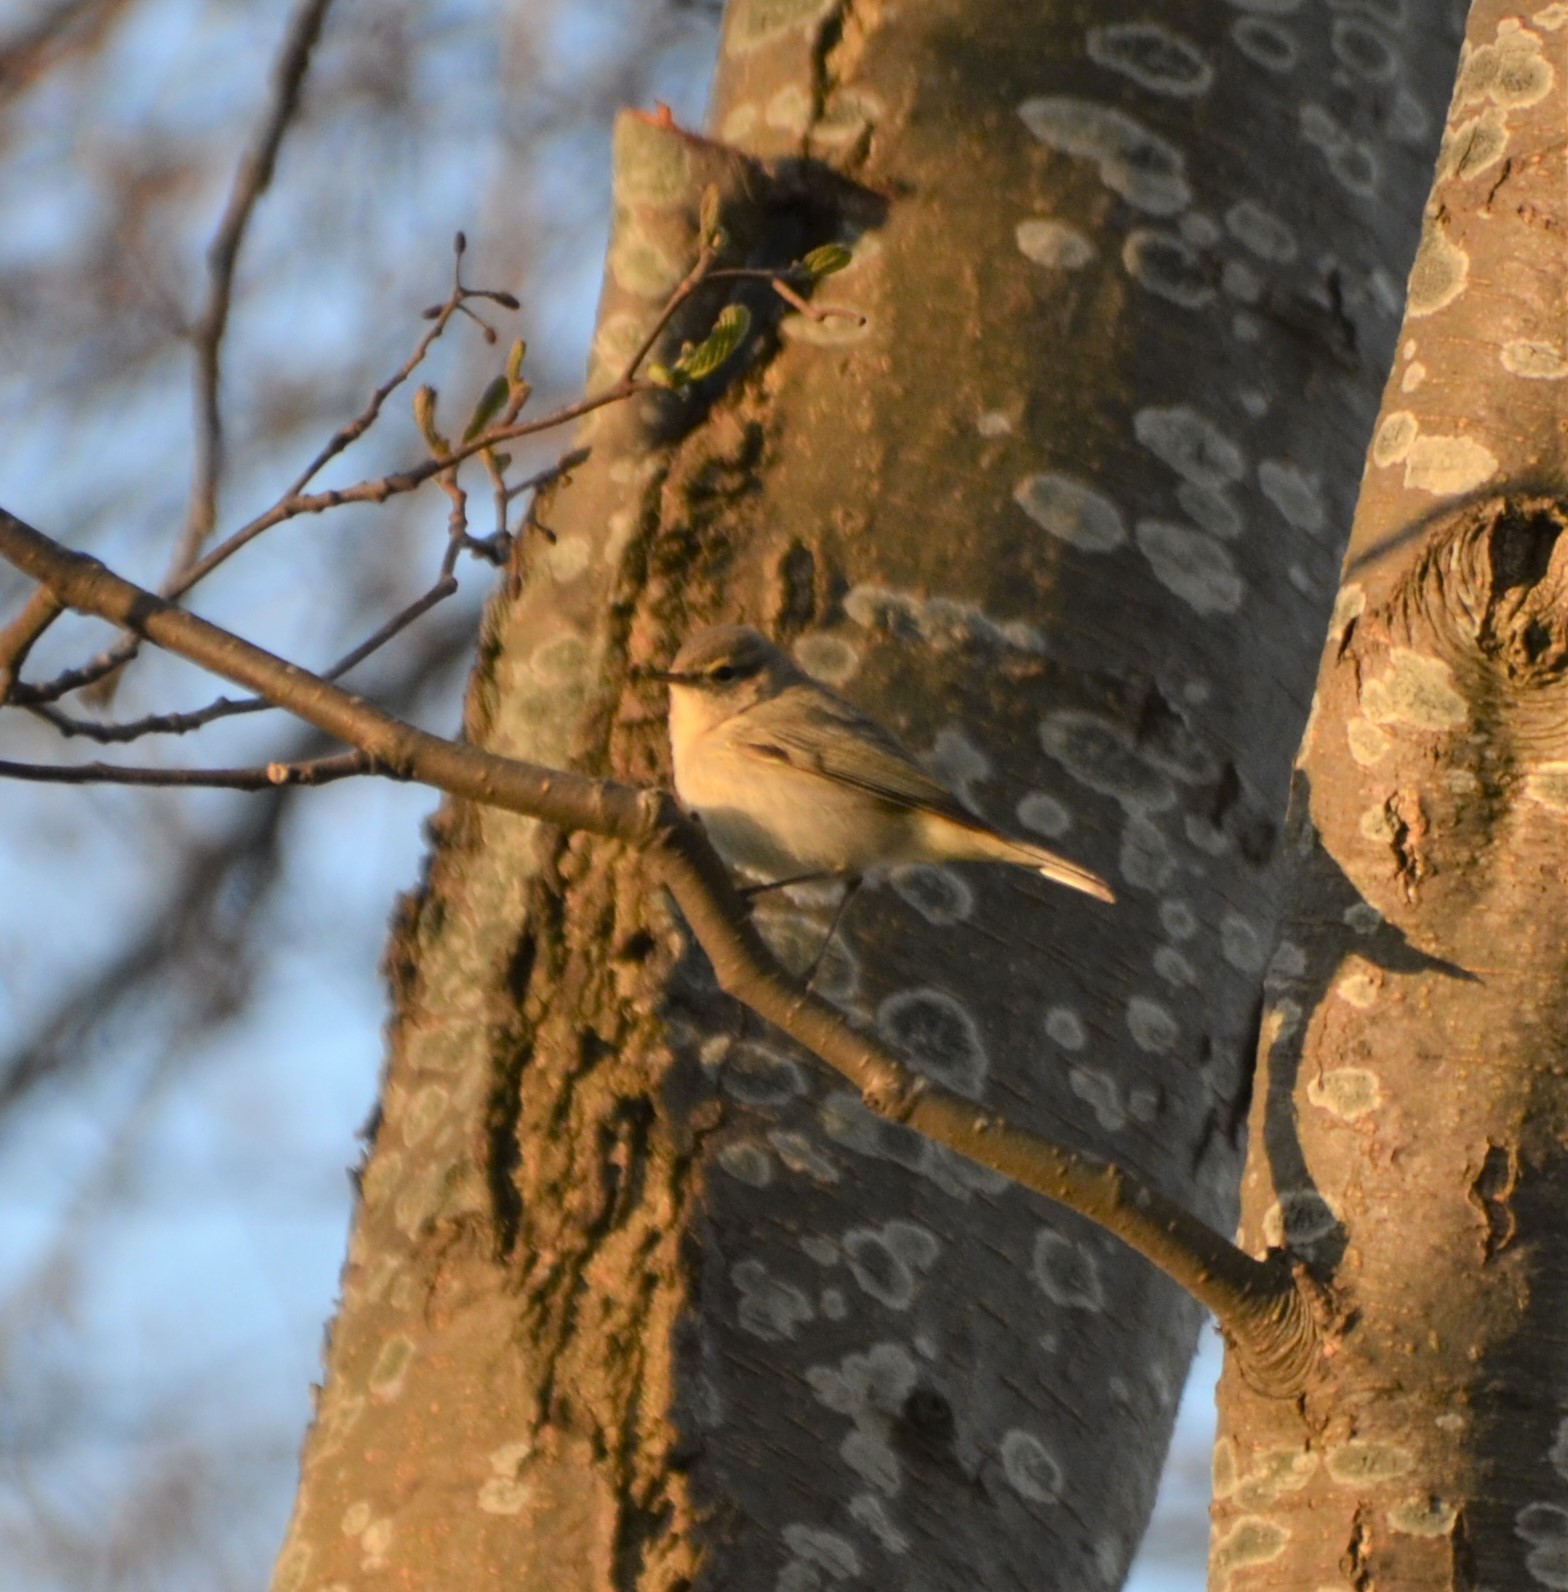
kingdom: Animalia
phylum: Chordata
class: Aves
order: Passeriformes
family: Phylloscopidae
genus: Phylloscopus
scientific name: Phylloscopus collybita
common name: Common chiffchaff
